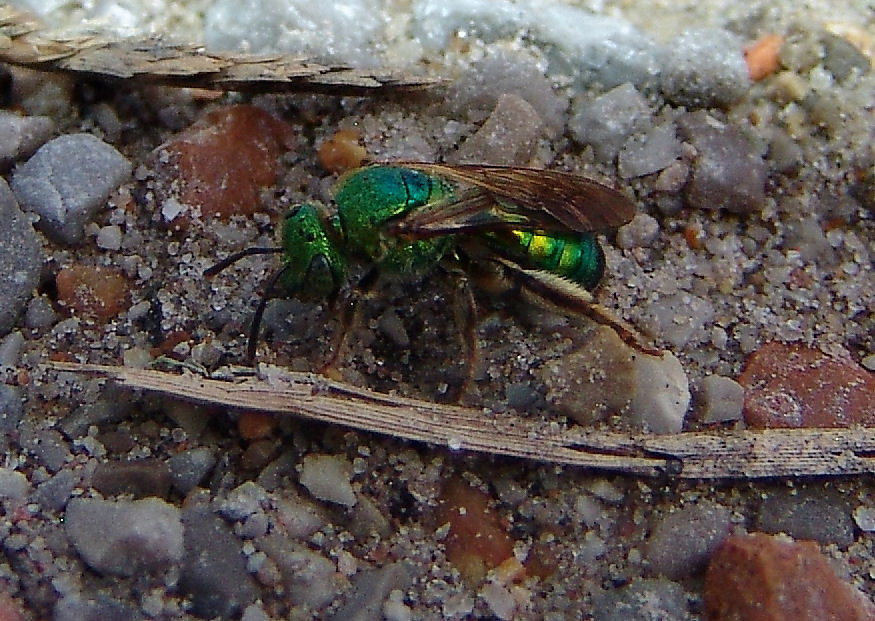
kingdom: Animalia
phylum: Arthropoda
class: Insecta
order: Hymenoptera
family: Halictidae
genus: Agapostemon
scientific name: Agapostemon splendens
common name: Brown-winged striped sweat bee
